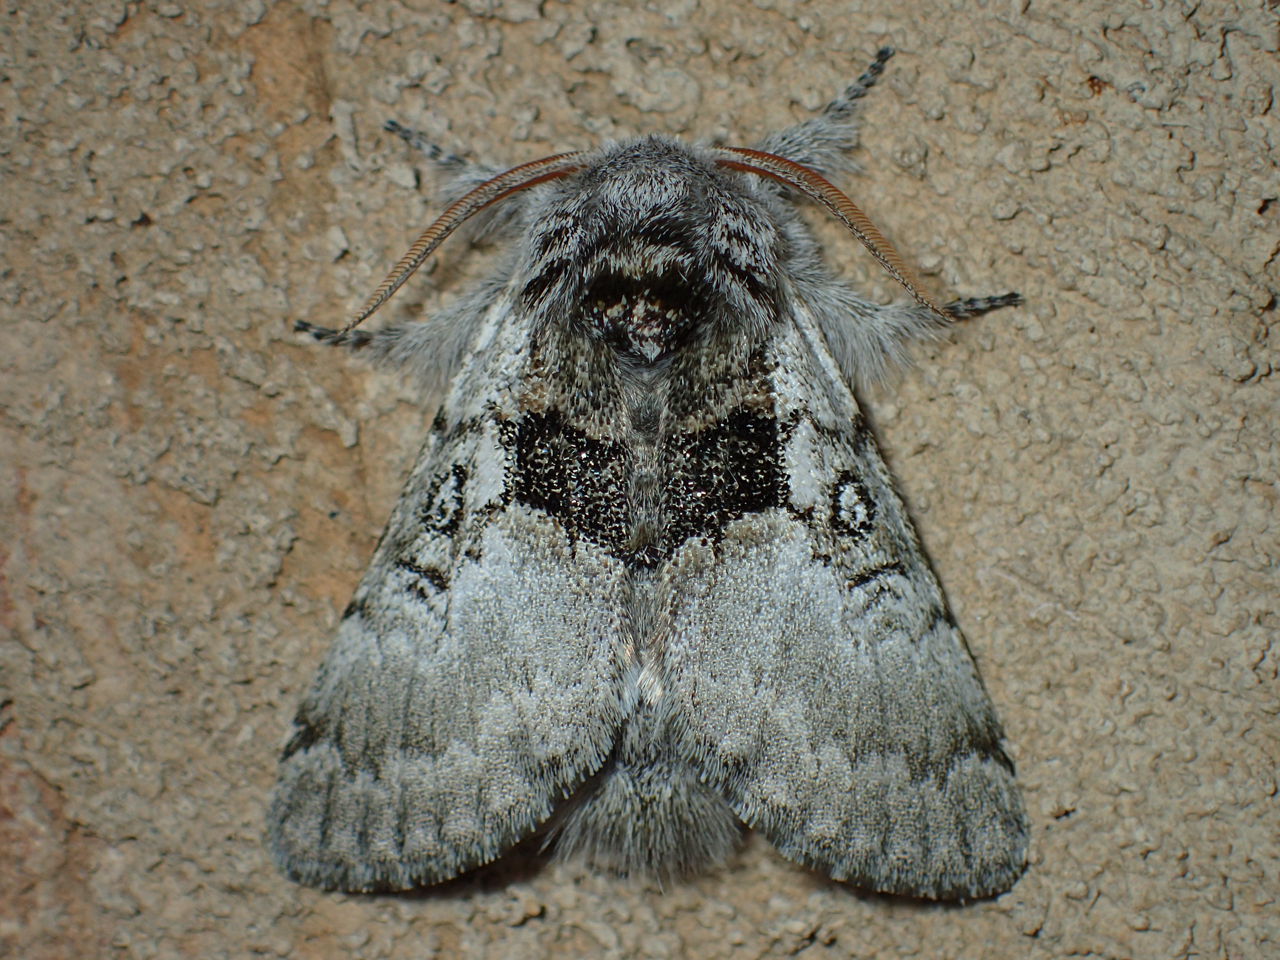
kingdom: Animalia
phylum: Arthropoda
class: Insecta
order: Lepidoptera
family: Noctuidae
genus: Colocasia
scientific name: Colocasia flavicornis
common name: Saddled yellowhorn
